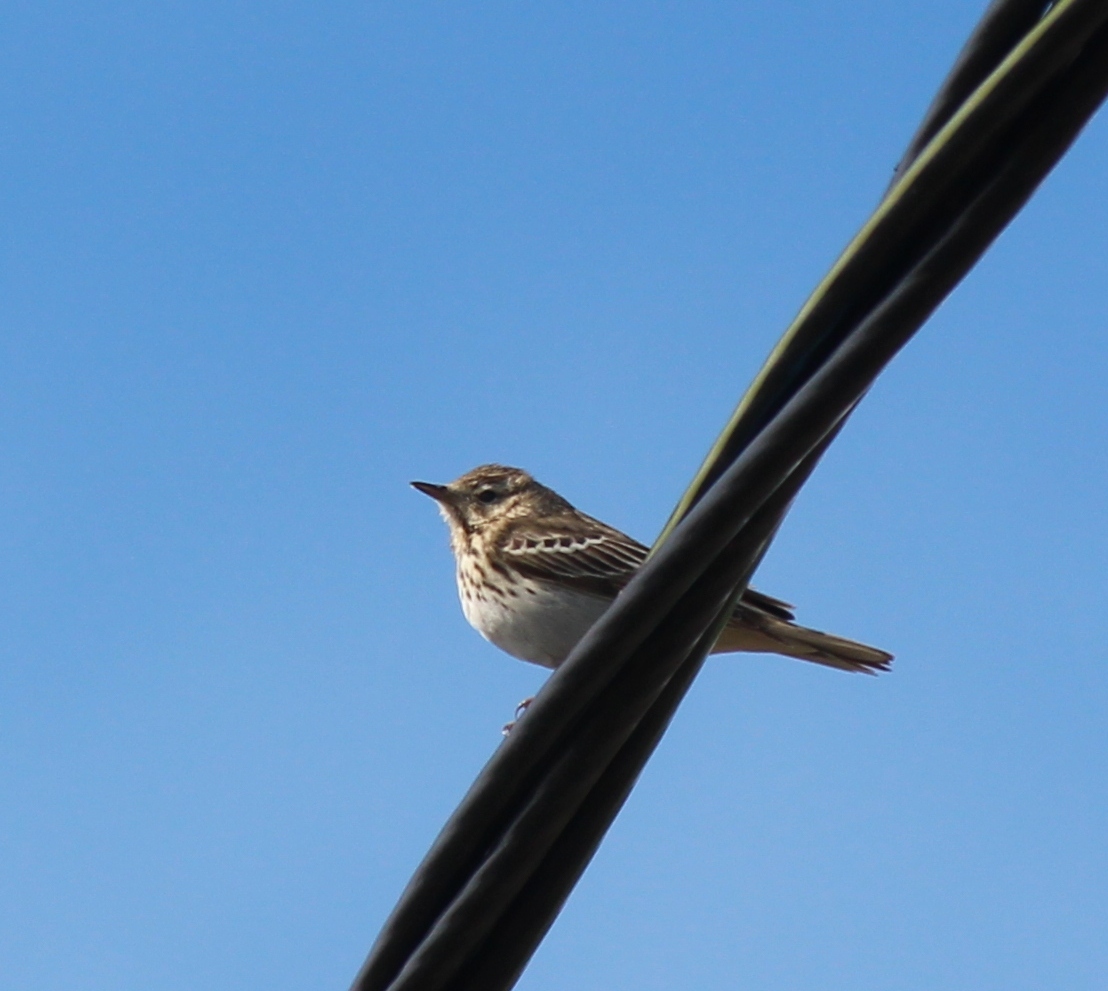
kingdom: Animalia
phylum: Chordata
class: Aves
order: Passeriformes
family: Motacillidae
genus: Anthus
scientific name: Anthus trivialis
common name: Tree pipit
